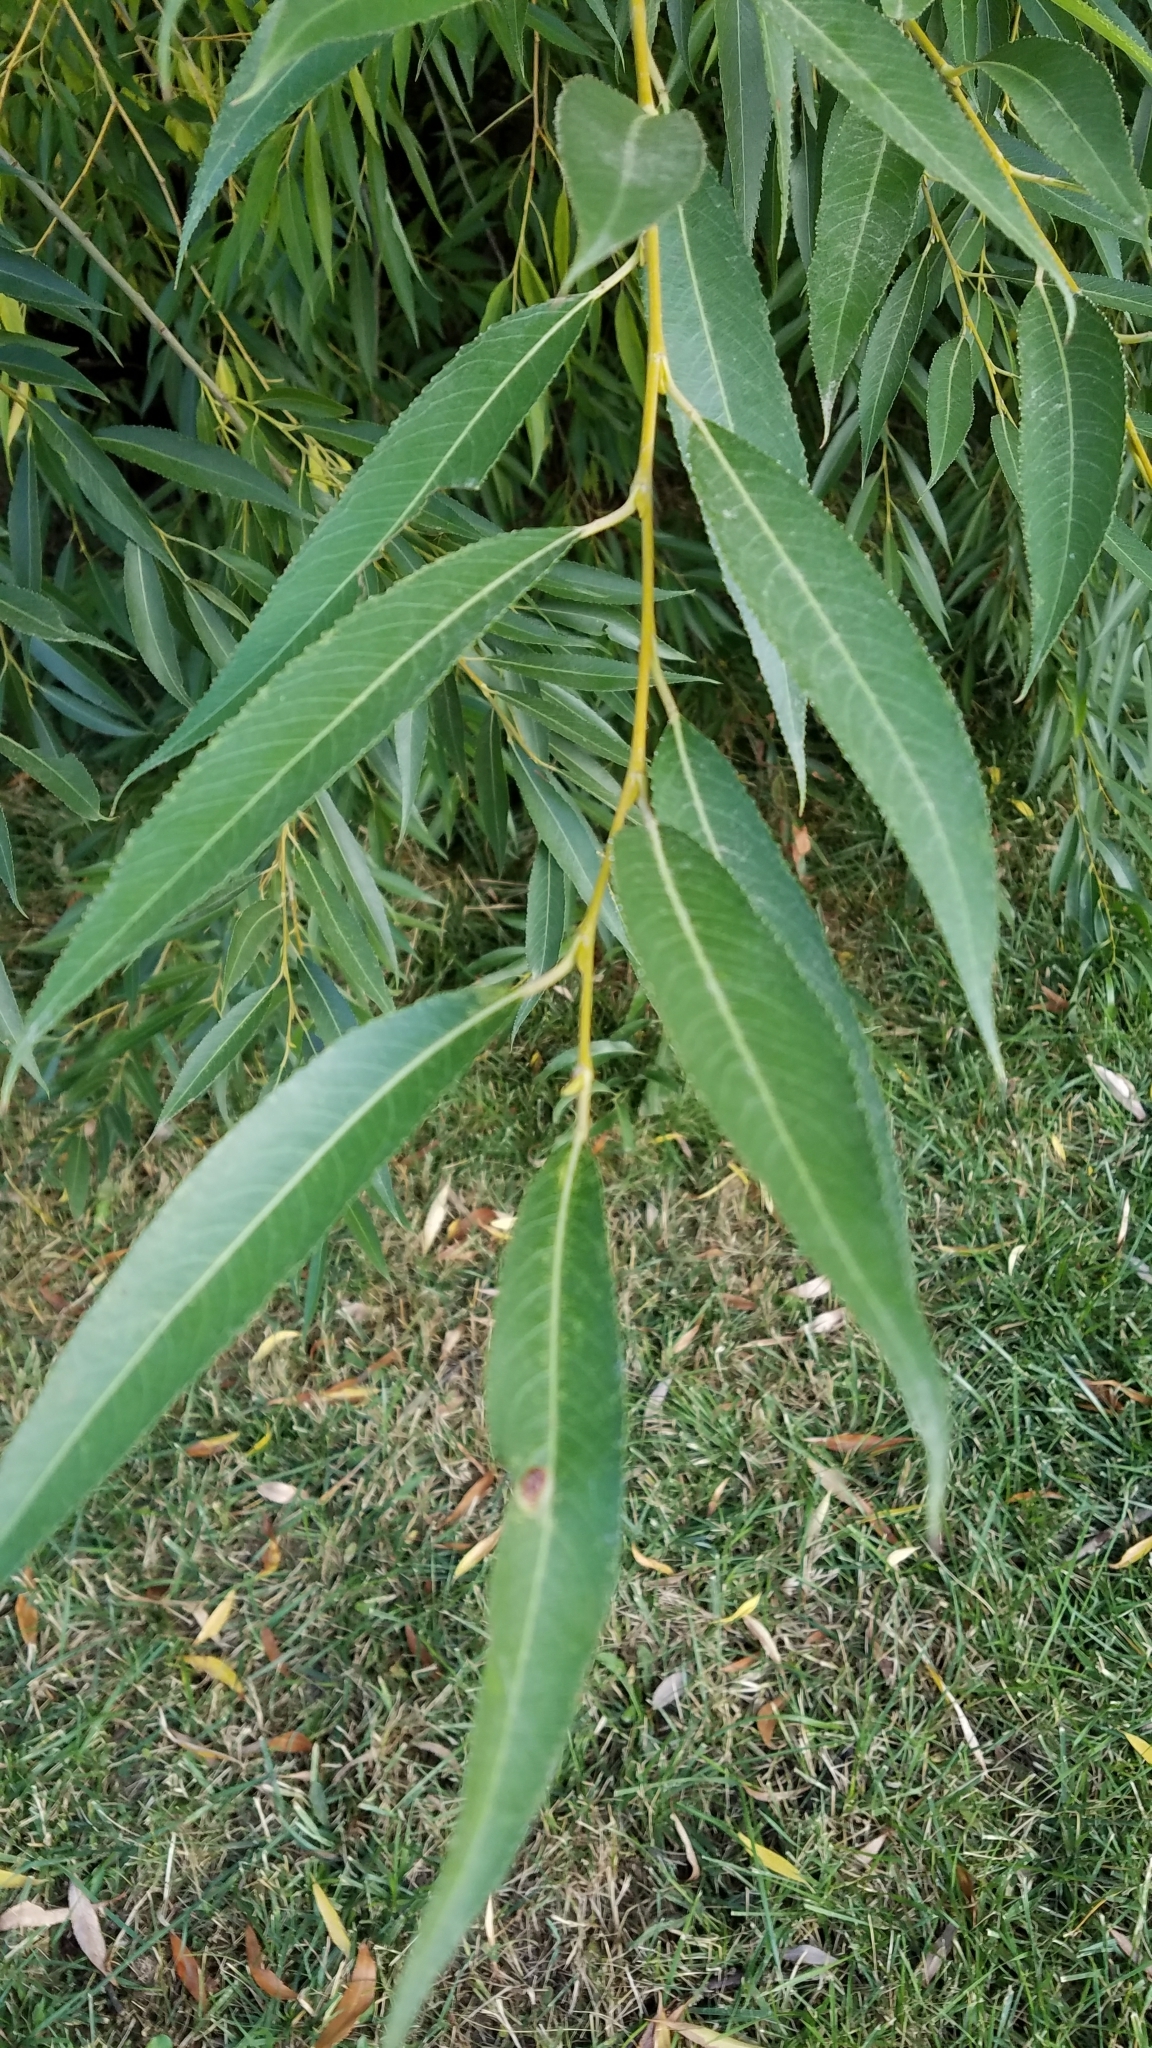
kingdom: Plantae
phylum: Tracheophyta
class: Magnoliopsida
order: Malpighiales
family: Salicaceae
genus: Salix
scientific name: Salix alba
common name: White willow
